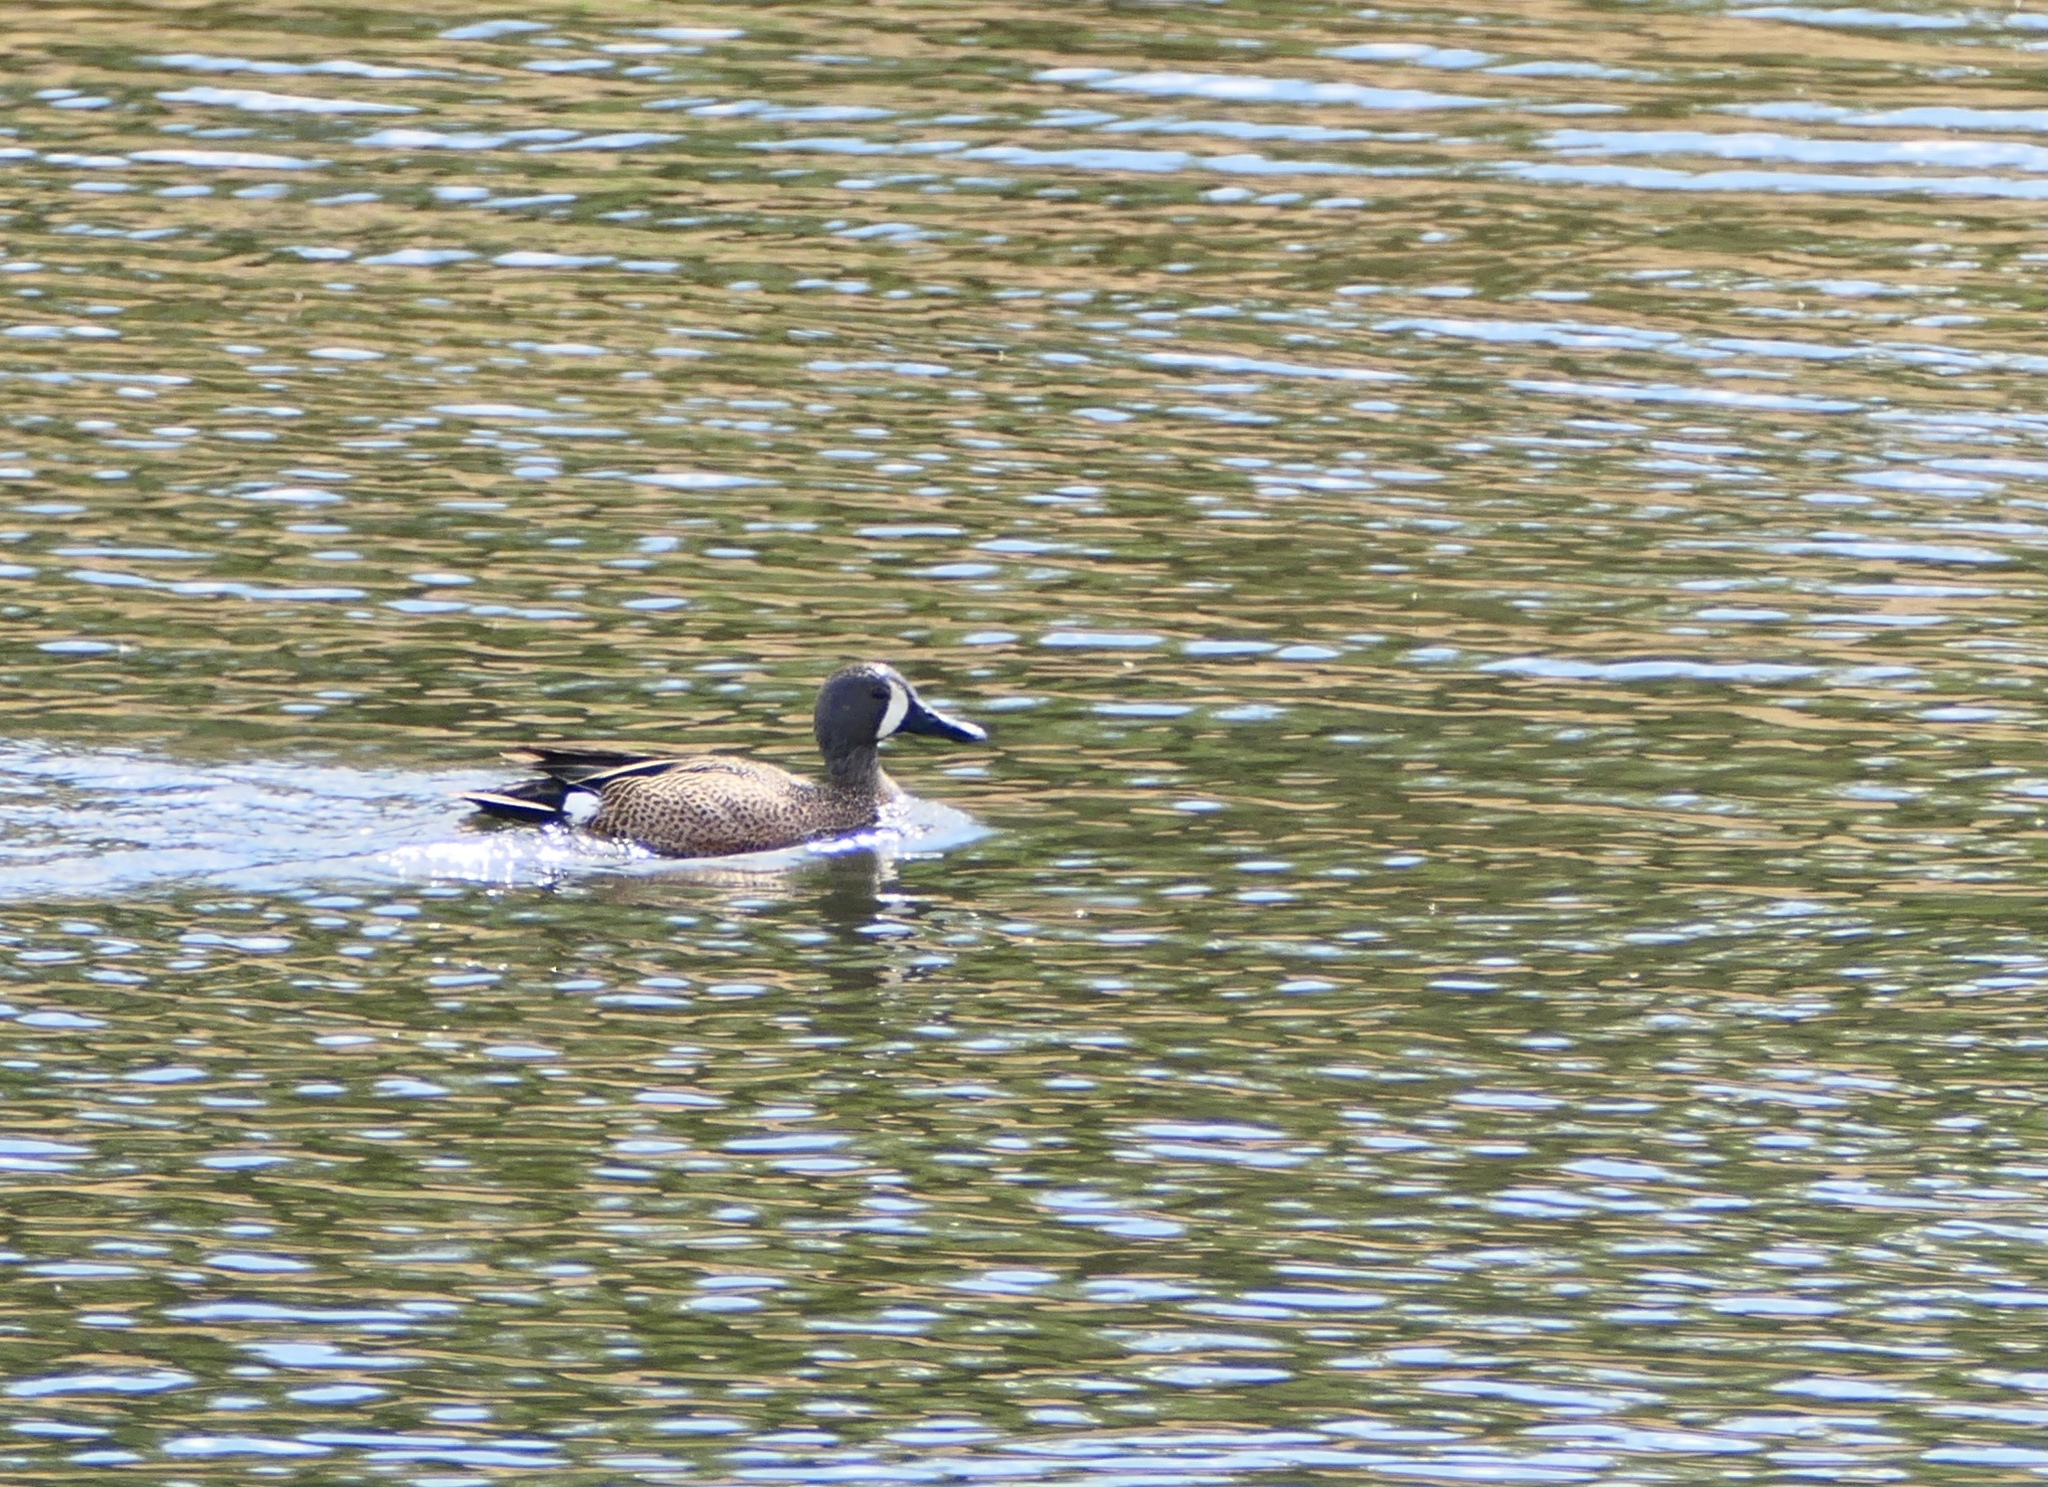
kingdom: Animalia
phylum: Chordata
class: Aves
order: Anseriformes
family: Anatidae
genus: Spatula
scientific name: Spatula discors
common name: Blue-winged teal
